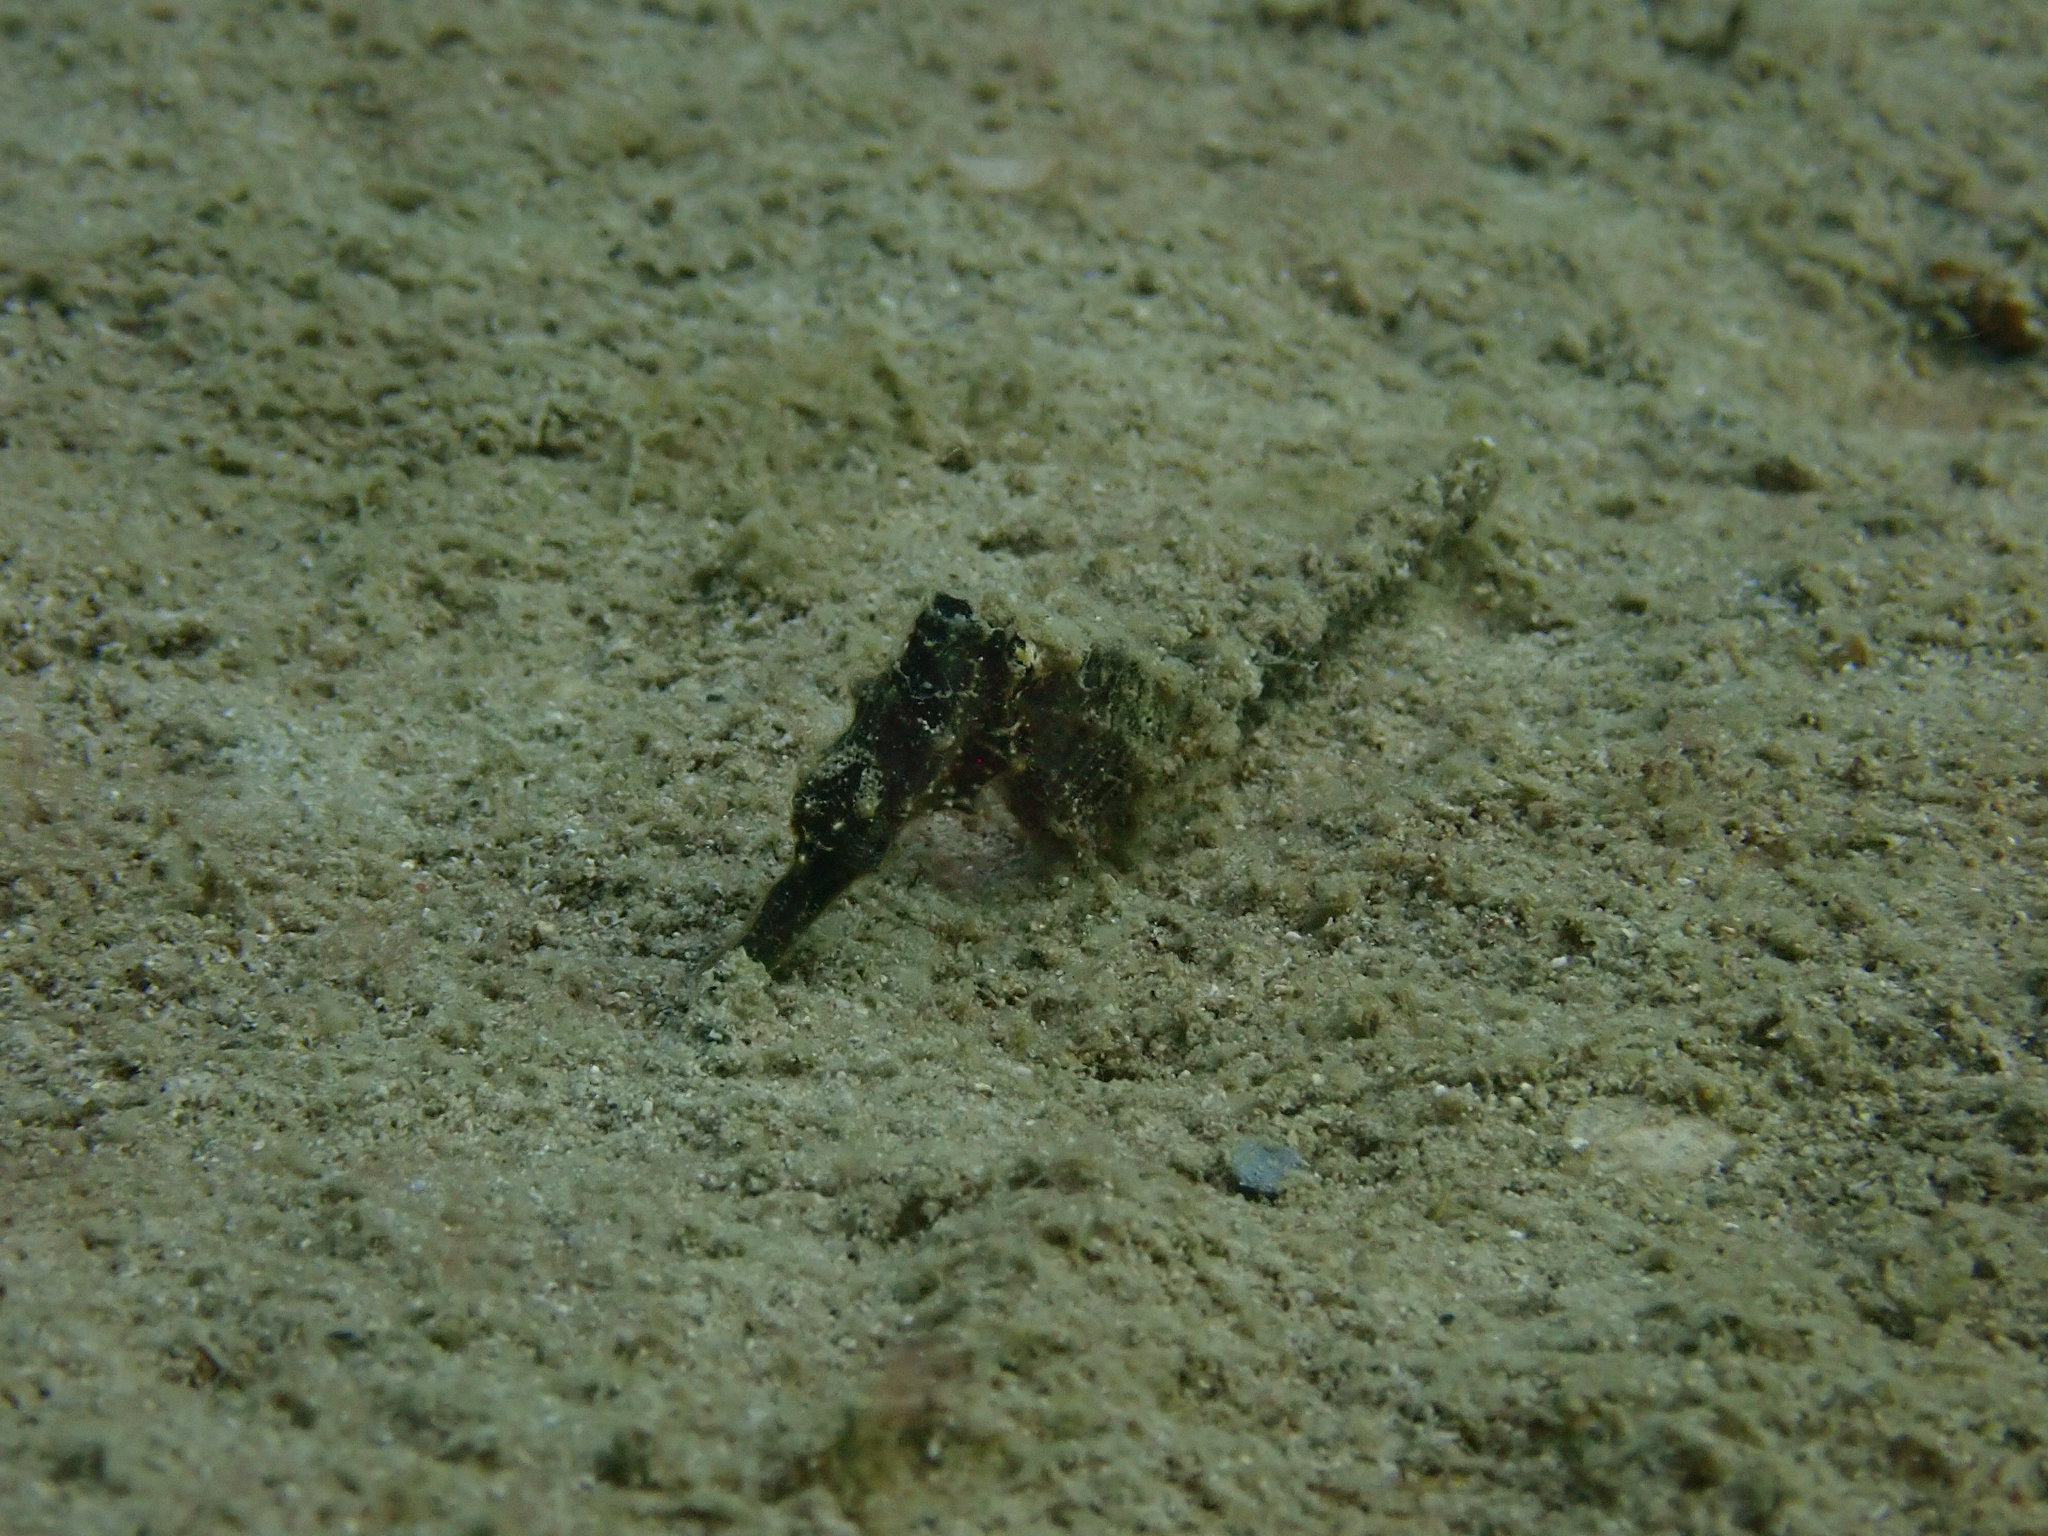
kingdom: Animalia
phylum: Chordata
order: Syngnathiformes
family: Syngnathidae
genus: Hippocampus
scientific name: Hippocampus kuda
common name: Spotted seahorse
